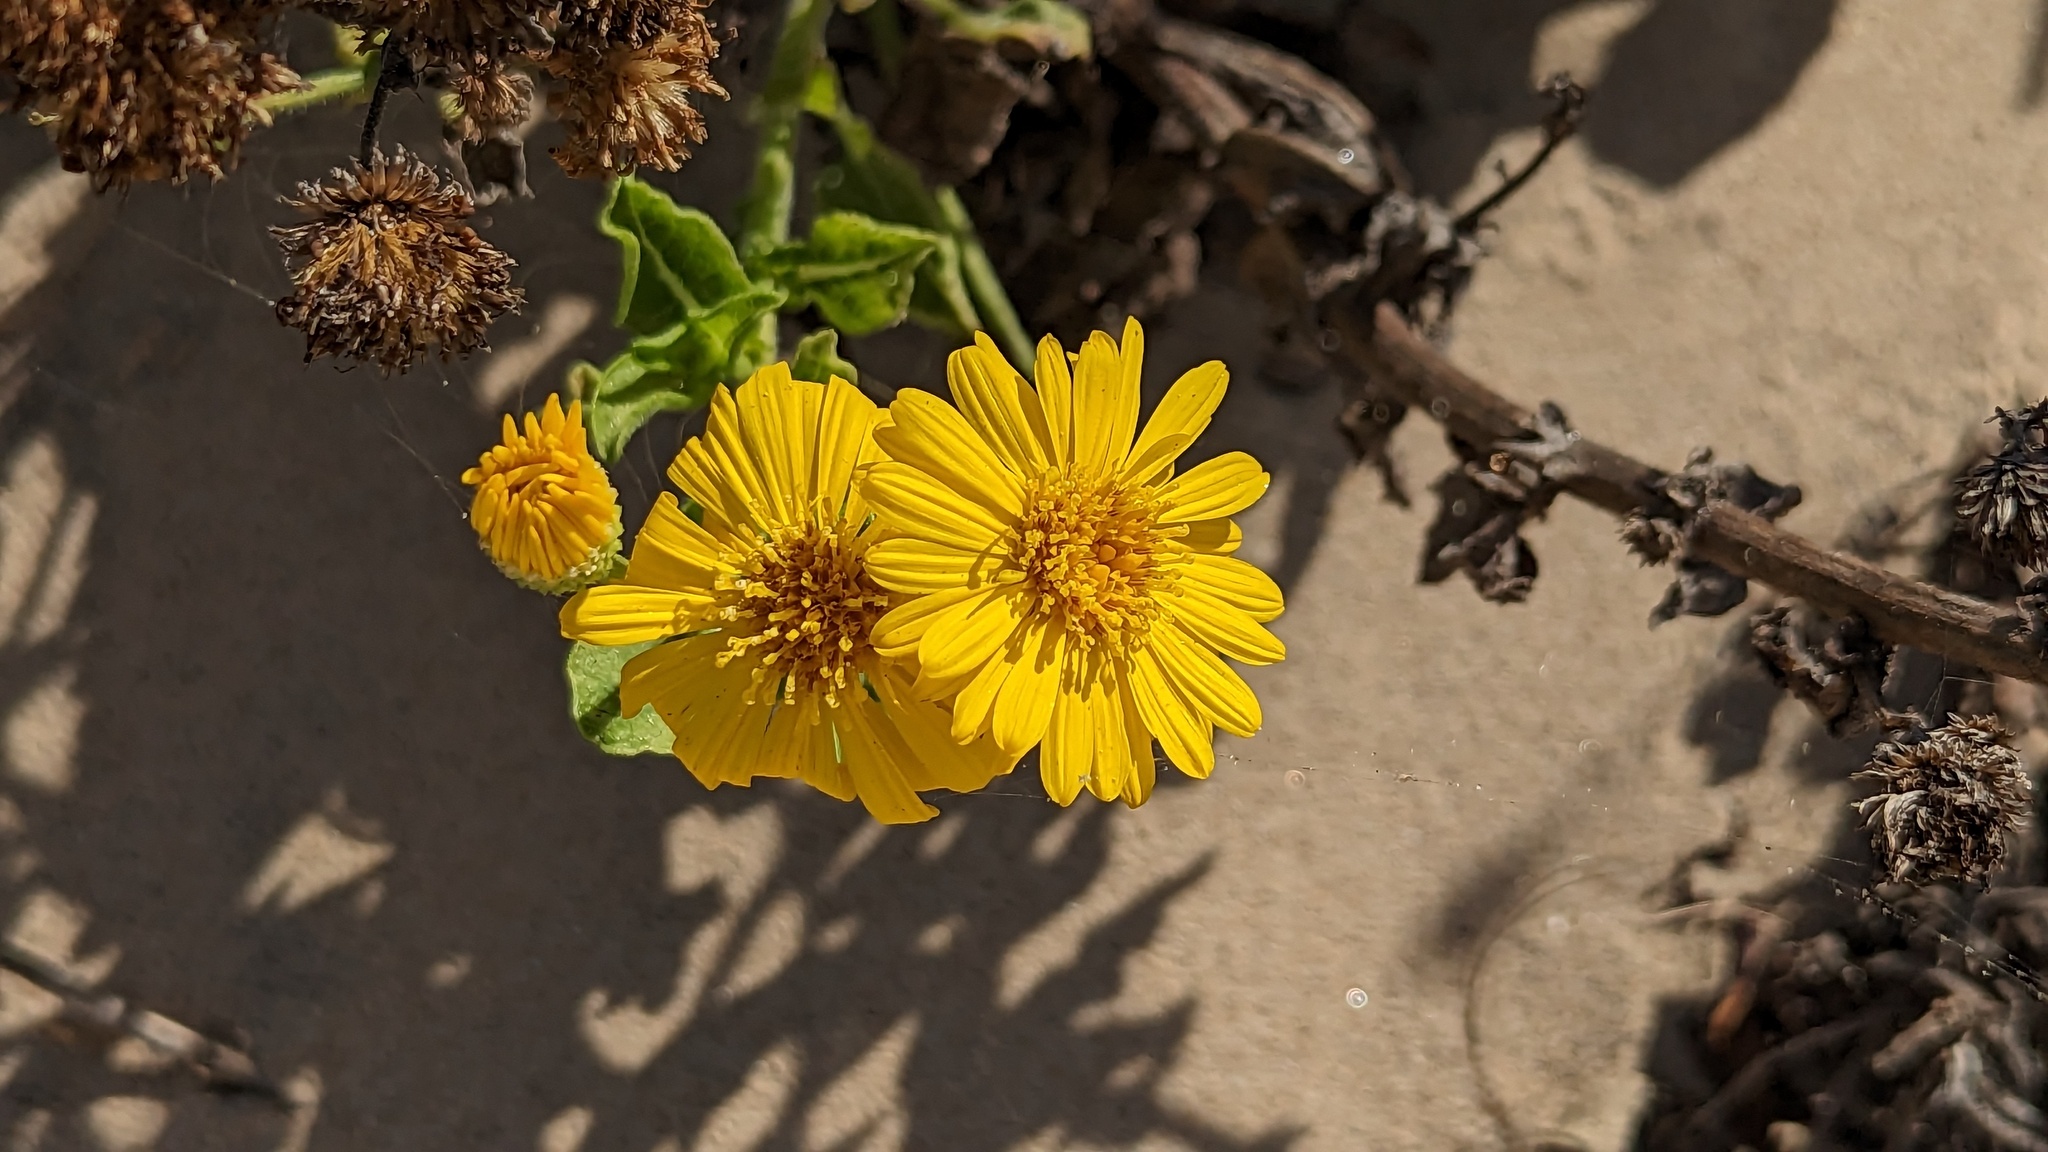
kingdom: Plantae
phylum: Tracheophyta
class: Magnoliopsida
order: Asterales
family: Asteraceae
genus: Heterotheca
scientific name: Heterotheca subaxillaris
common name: Camphorweed
